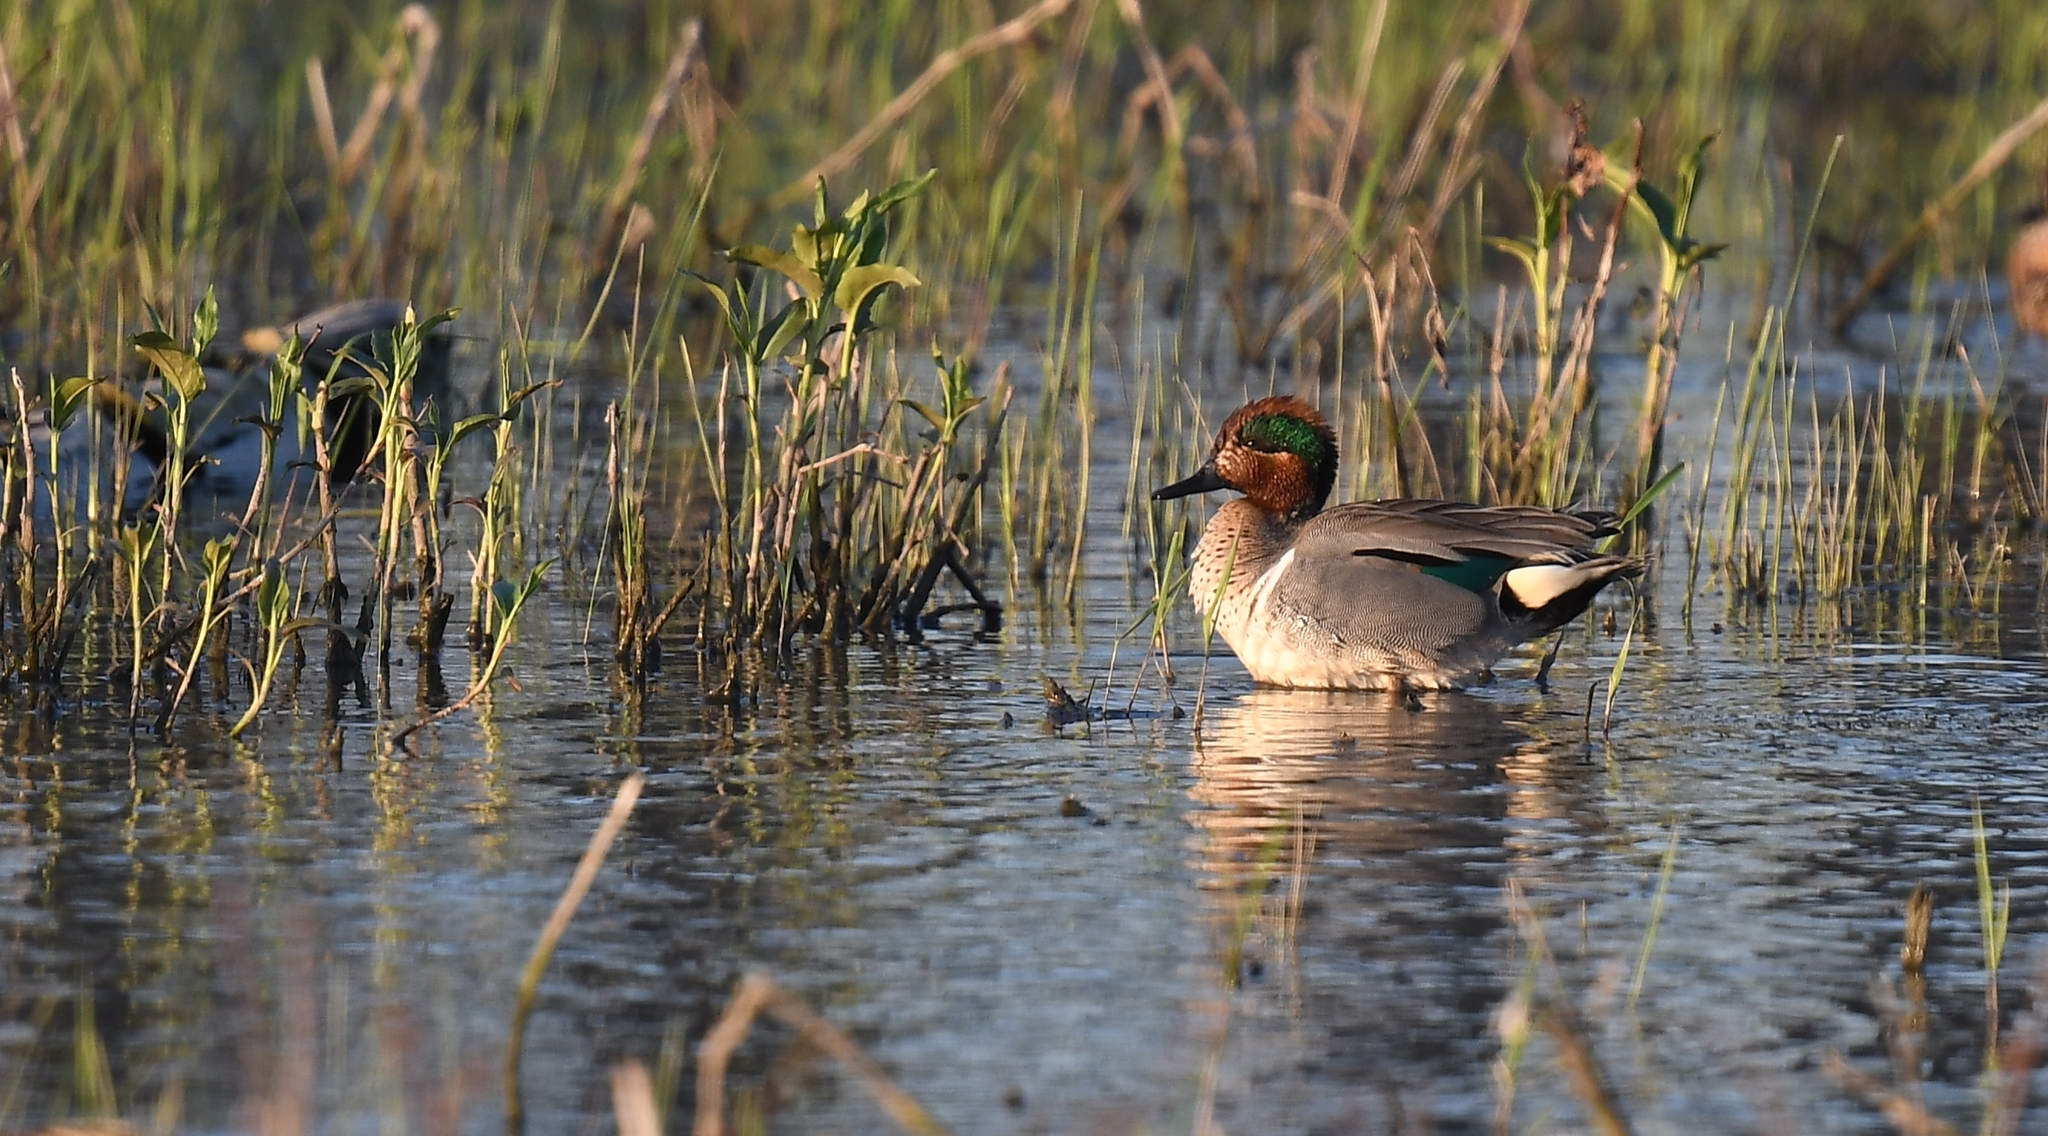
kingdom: Animalia
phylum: Chordata
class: Aves
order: Anseriformes
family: Anatidae
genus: Anas
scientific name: Anas crecca
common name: Eurasian teal
